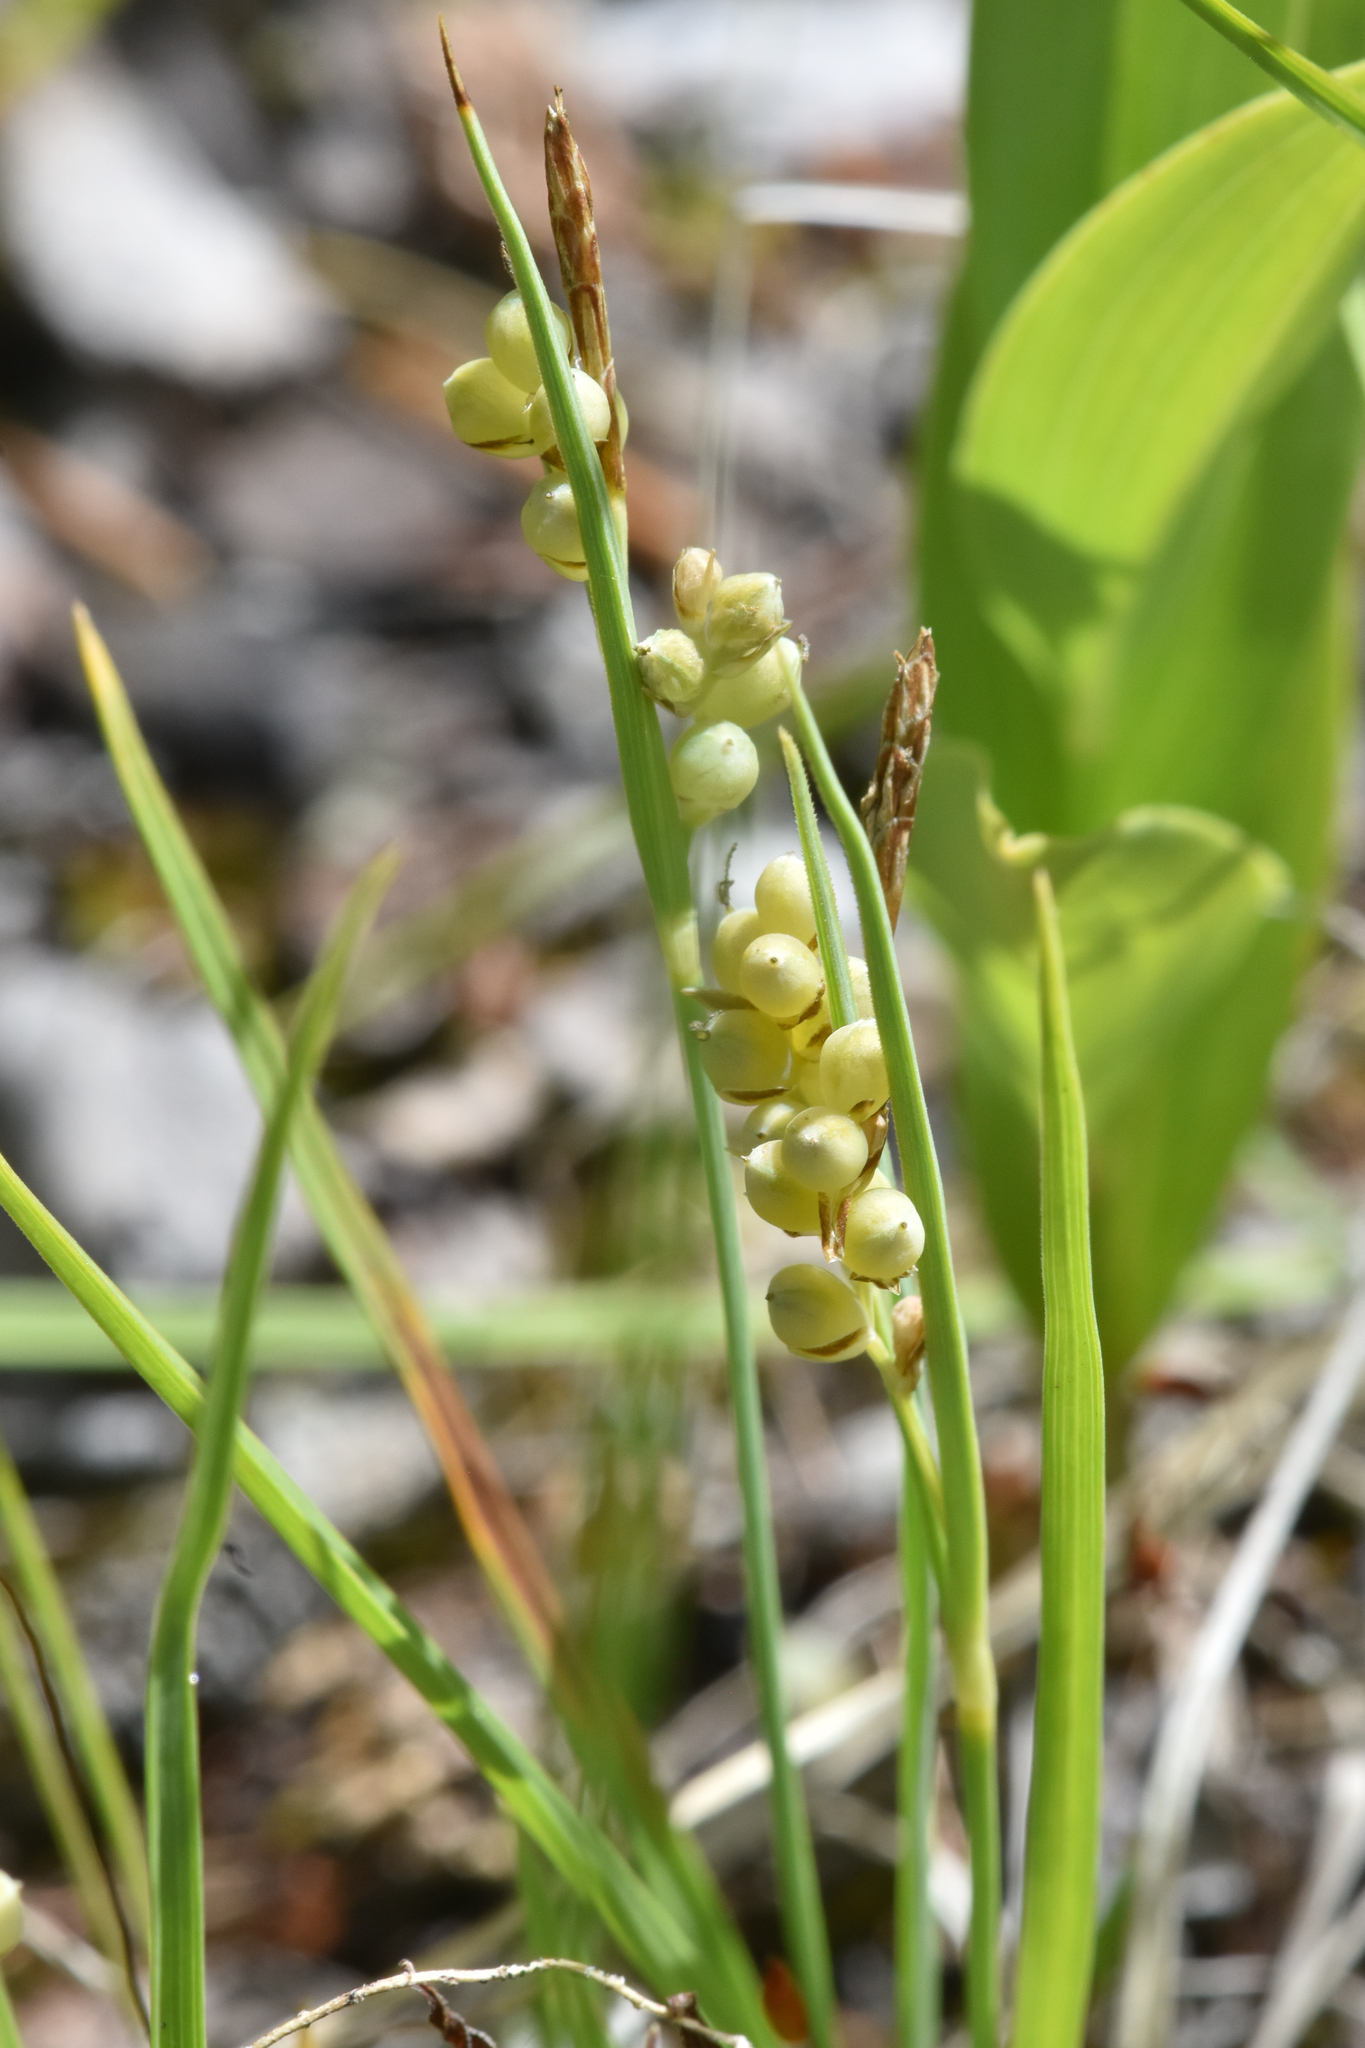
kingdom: Plantae
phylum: Tracheophyta
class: Liliopsida
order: Poales
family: Cyperaceae
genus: Carex
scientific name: Carex aurea
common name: Golden sedge
